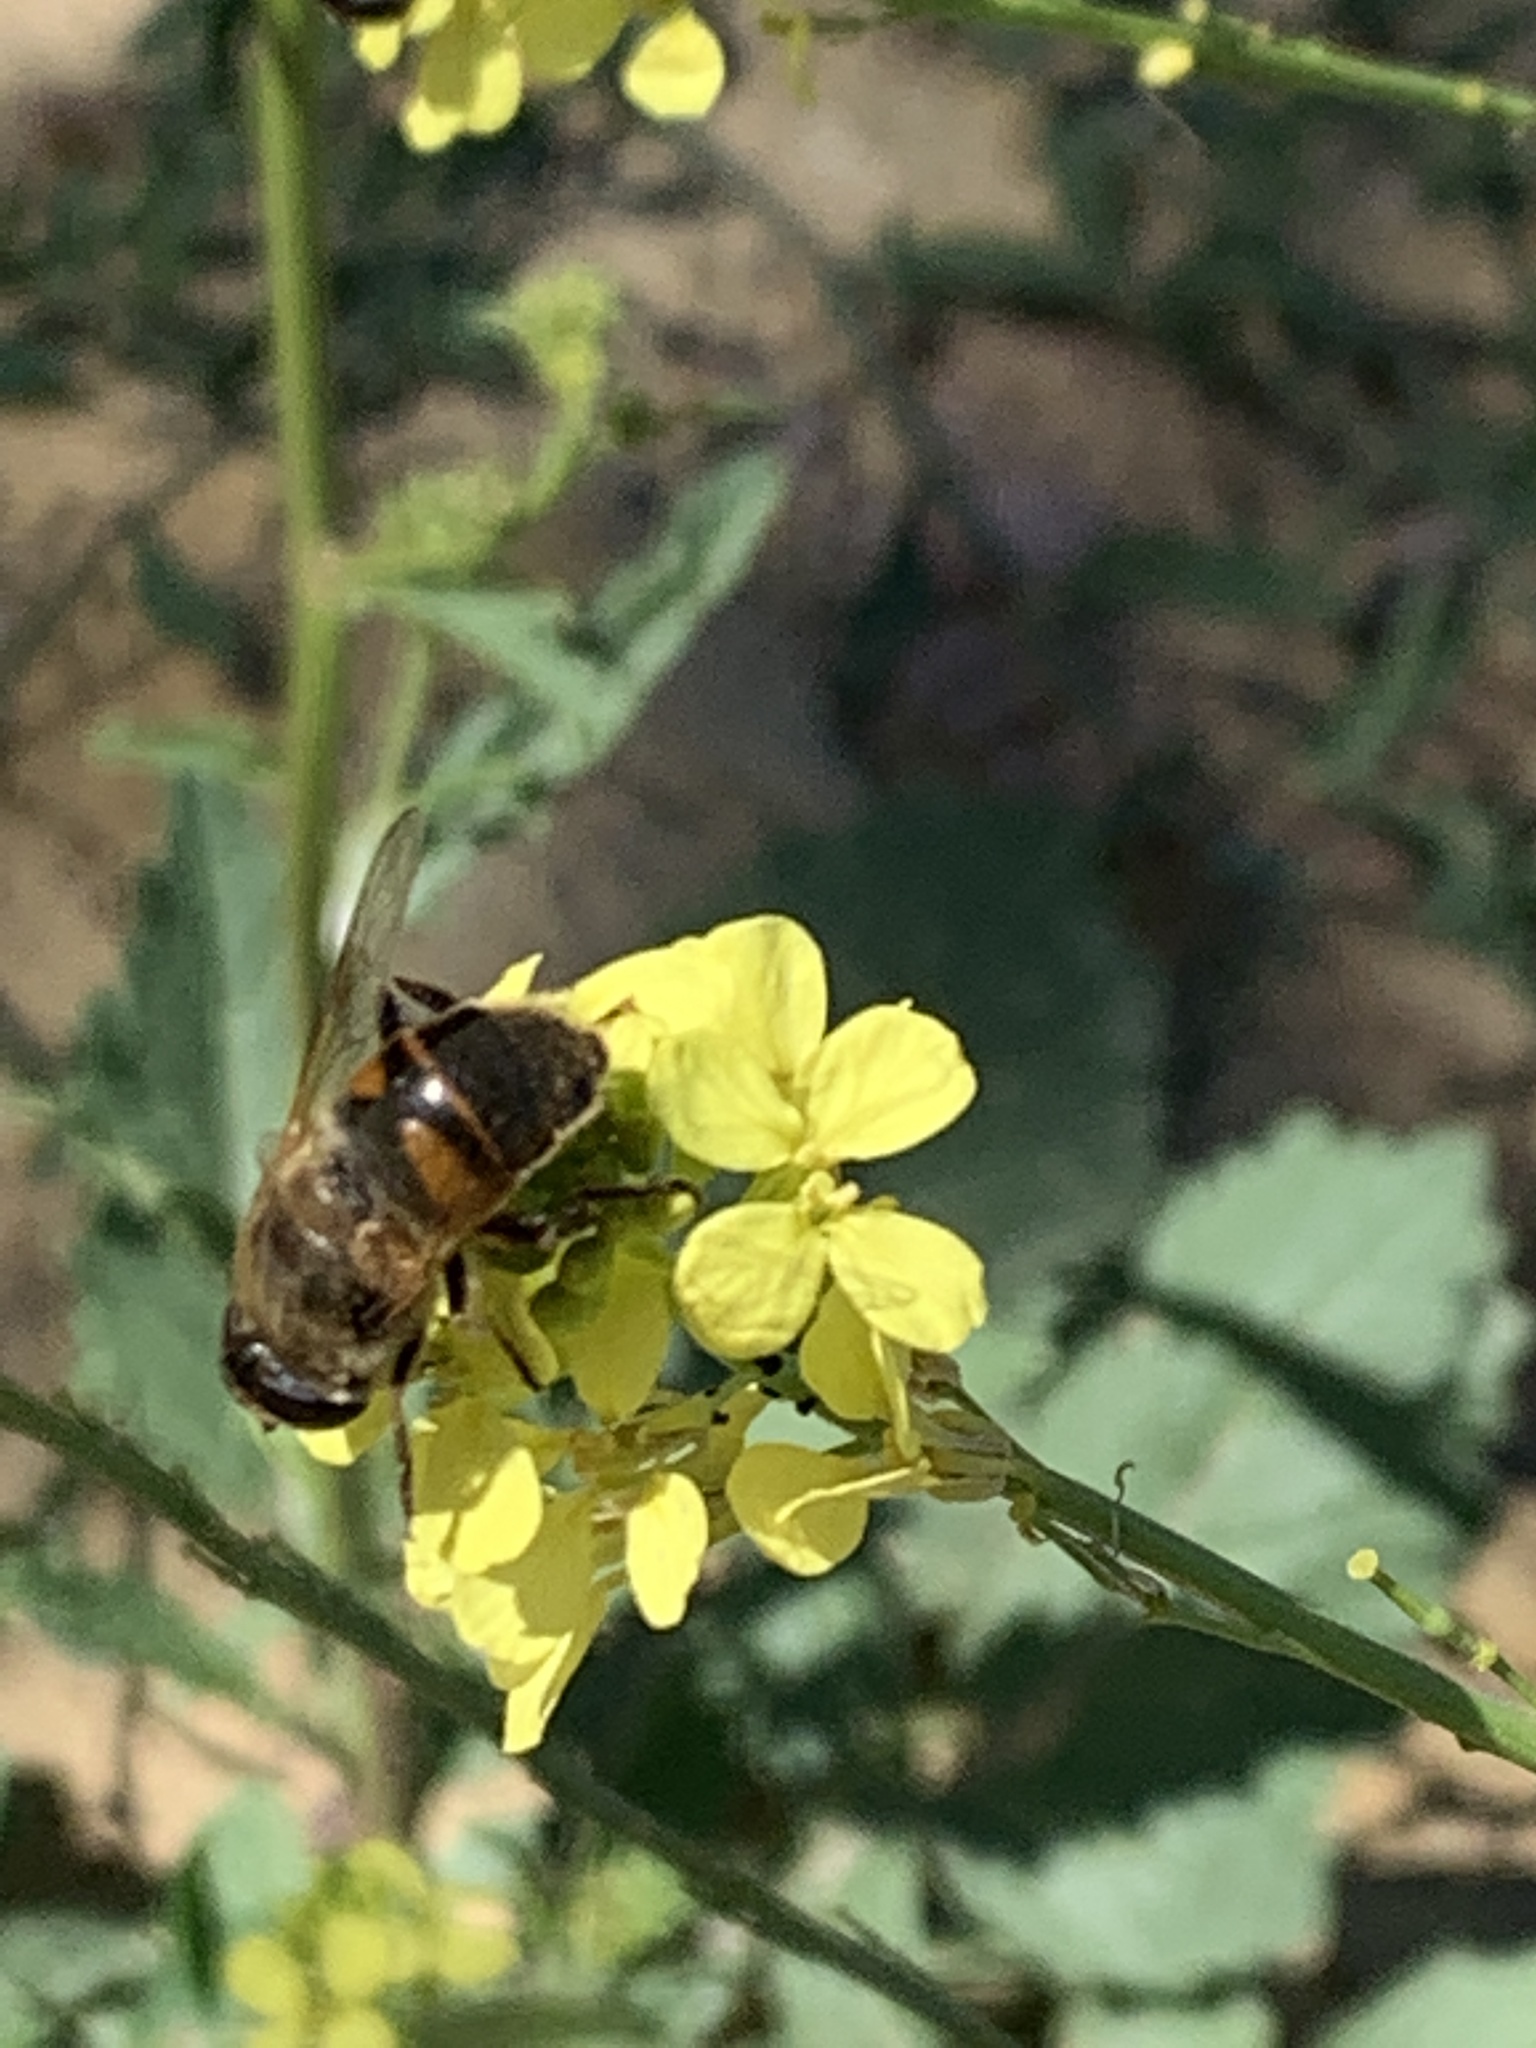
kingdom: Animalia
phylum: Arthropoda
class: Insecta
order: Diptera
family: Syrphidae
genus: Eristalis
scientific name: Eristalis tenax
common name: Drone fly
